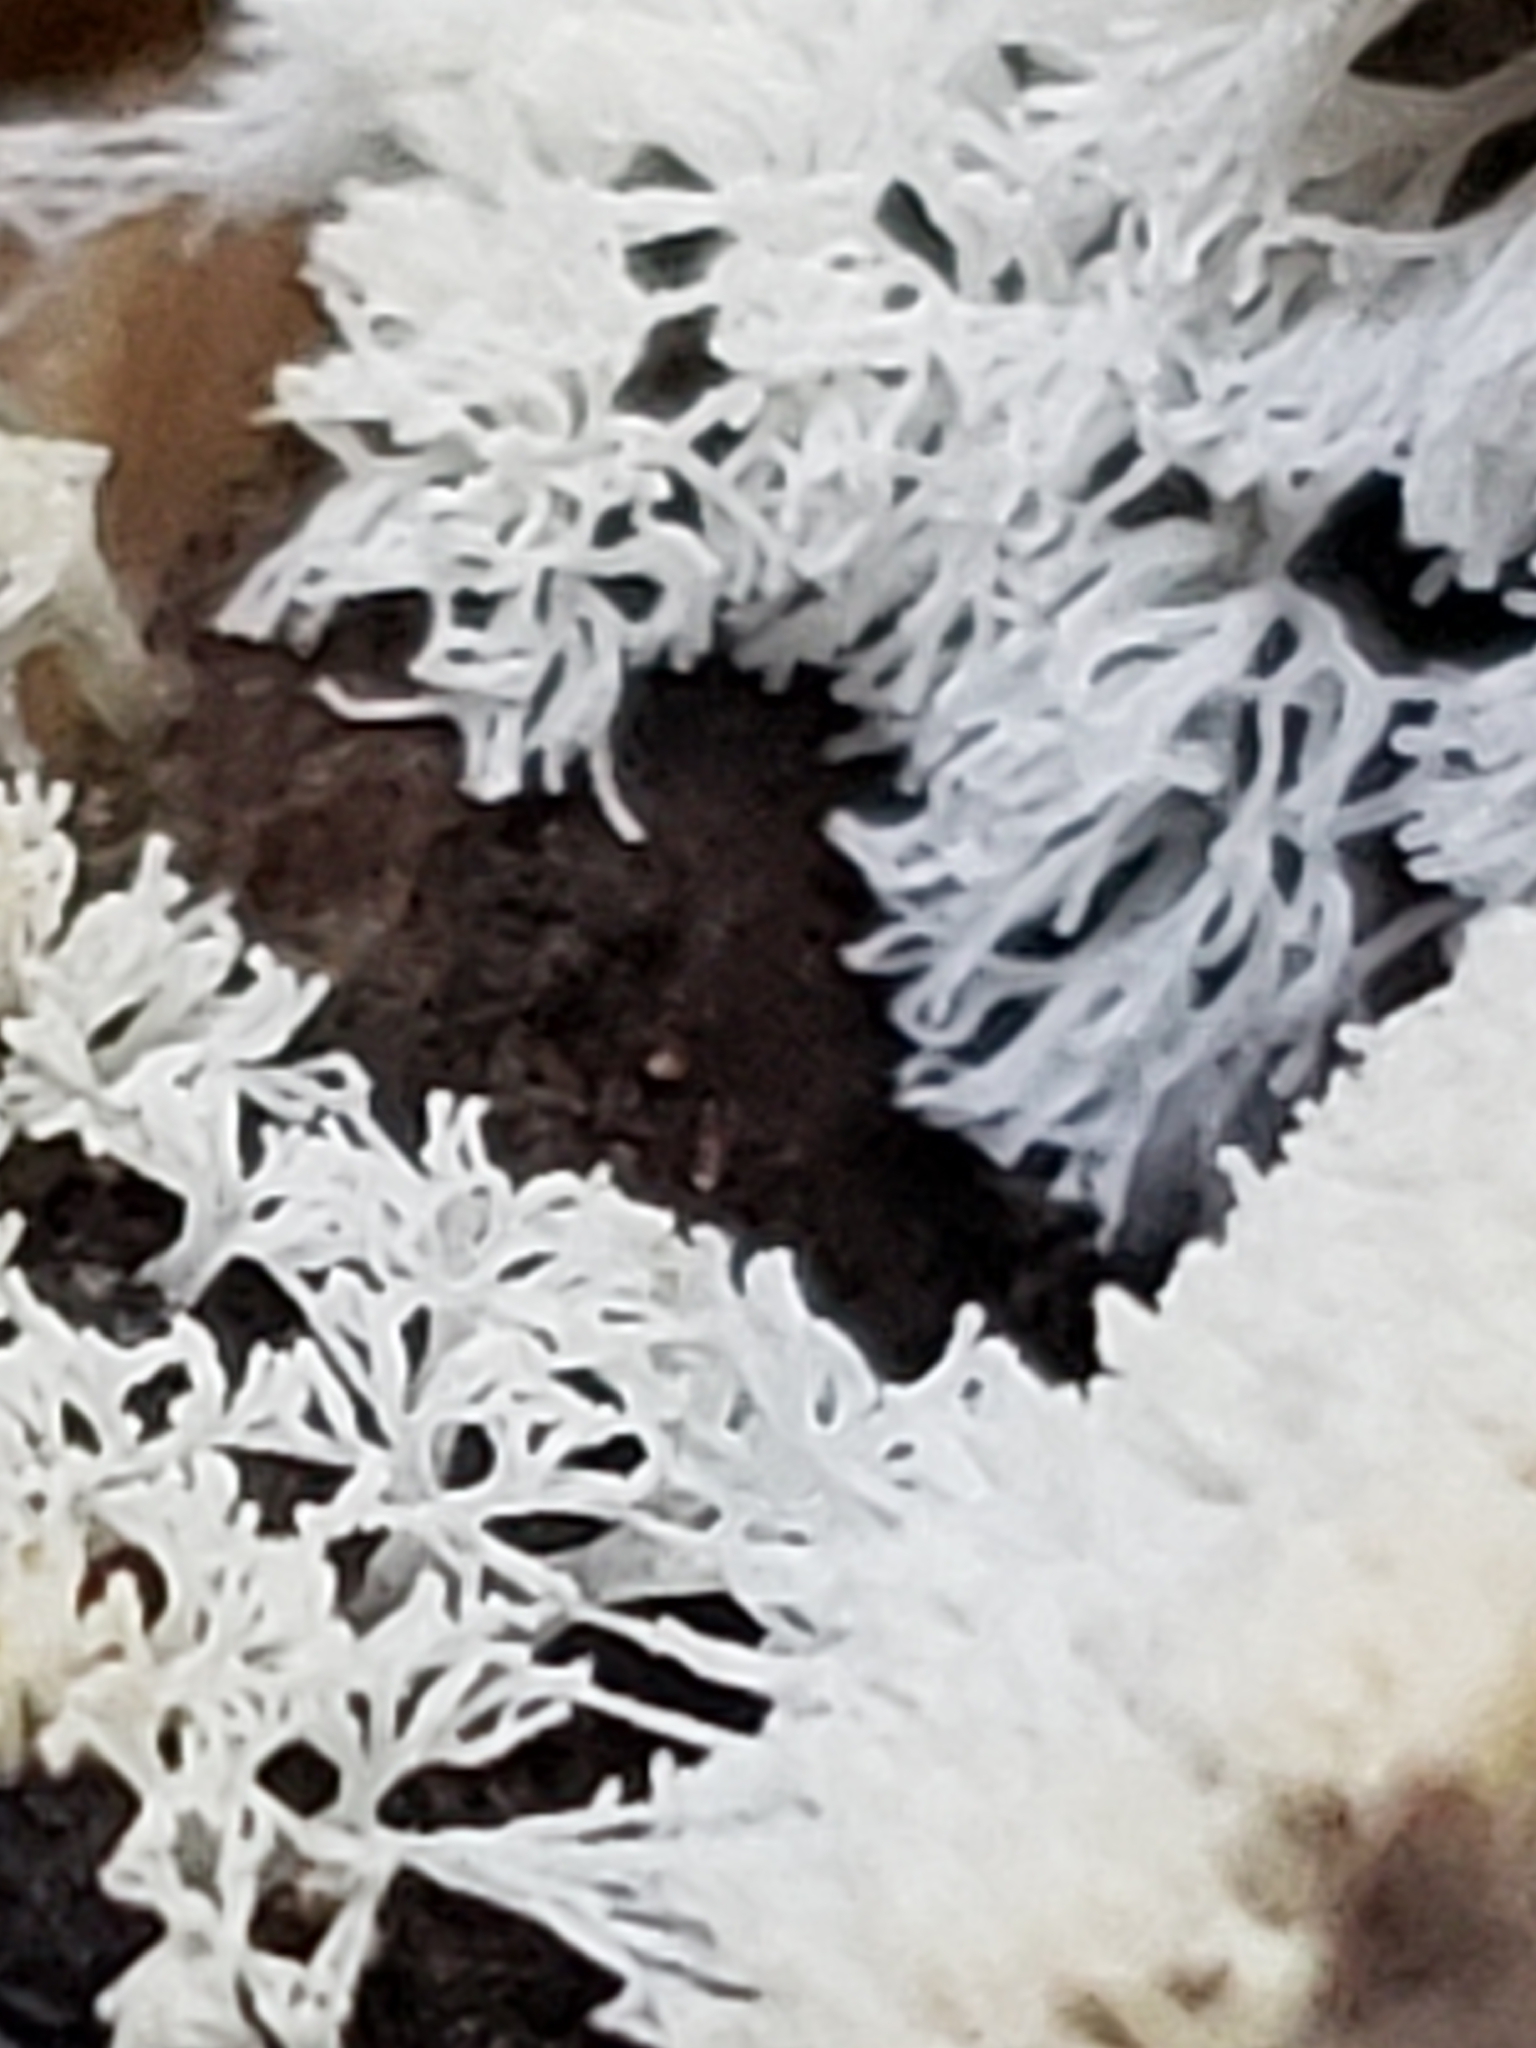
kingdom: Protozoa
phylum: Mycetozoa
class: Protosteliomycetes
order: Ceratiomyxales
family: Ceratiomyxaceae
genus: Ceratiomyxa
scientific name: Ceratiomyxa fruticulosa
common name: Honeycomb coral slime mold
